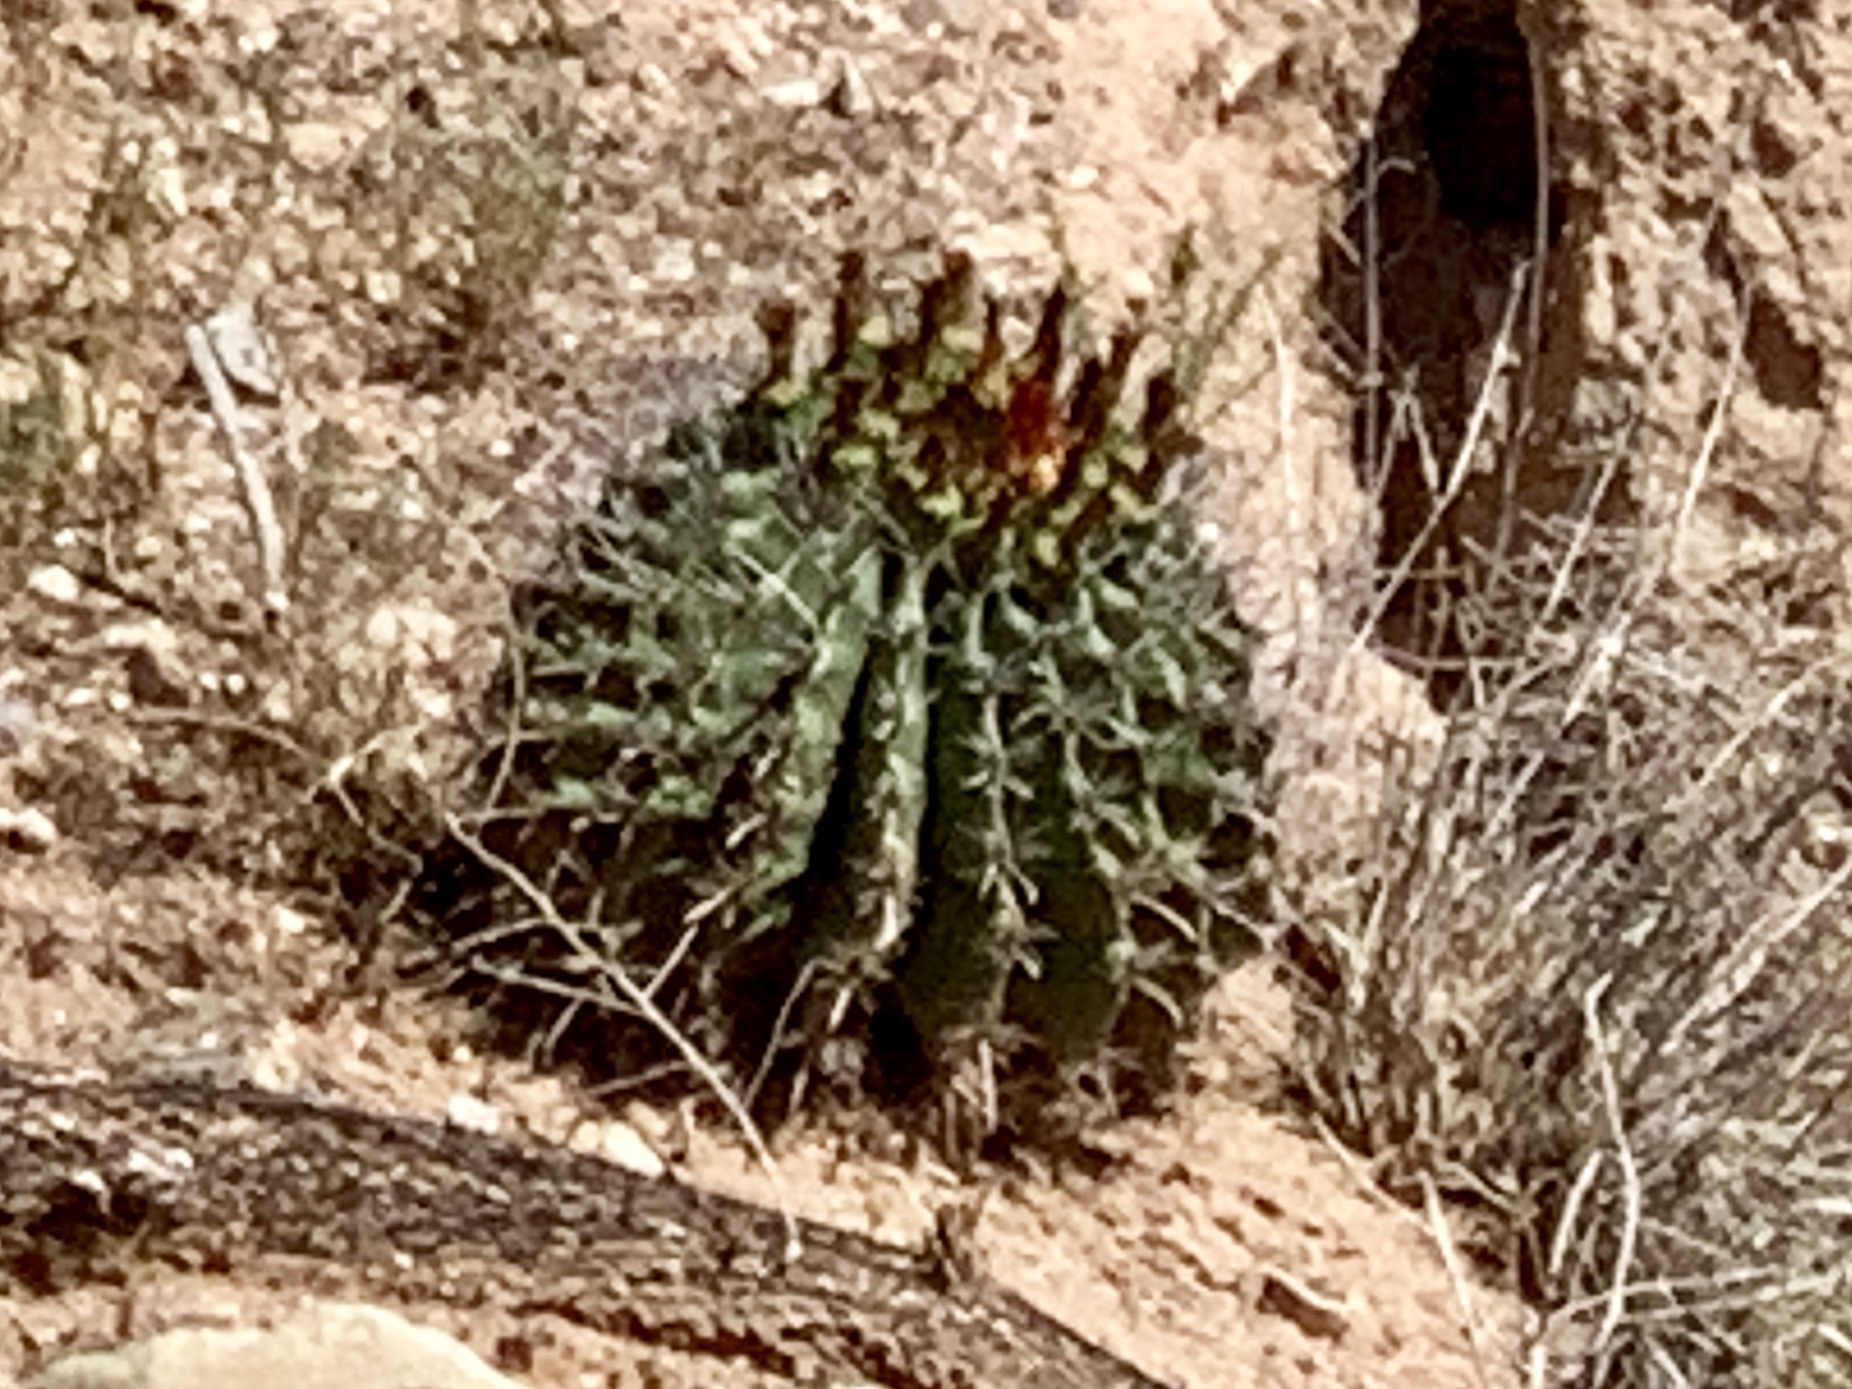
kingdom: Plantae
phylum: Tracheophyta
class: Magnoliopsida
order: Caryophyllales
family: Cactaceae
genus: Ferocactus
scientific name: Ferocactus wislizeni
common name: Candy barrel cactus
